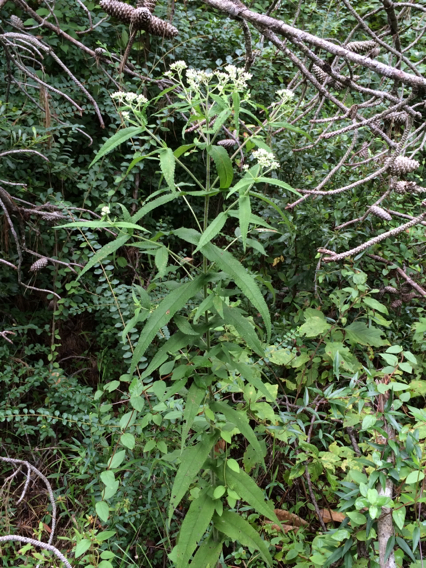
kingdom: Plantae
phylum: Tracheophyta
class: Magnoliopsida
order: Asterales
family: Asteraceae
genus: Eupatorium
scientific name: Eupatorium perfoliatum
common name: Boneset
